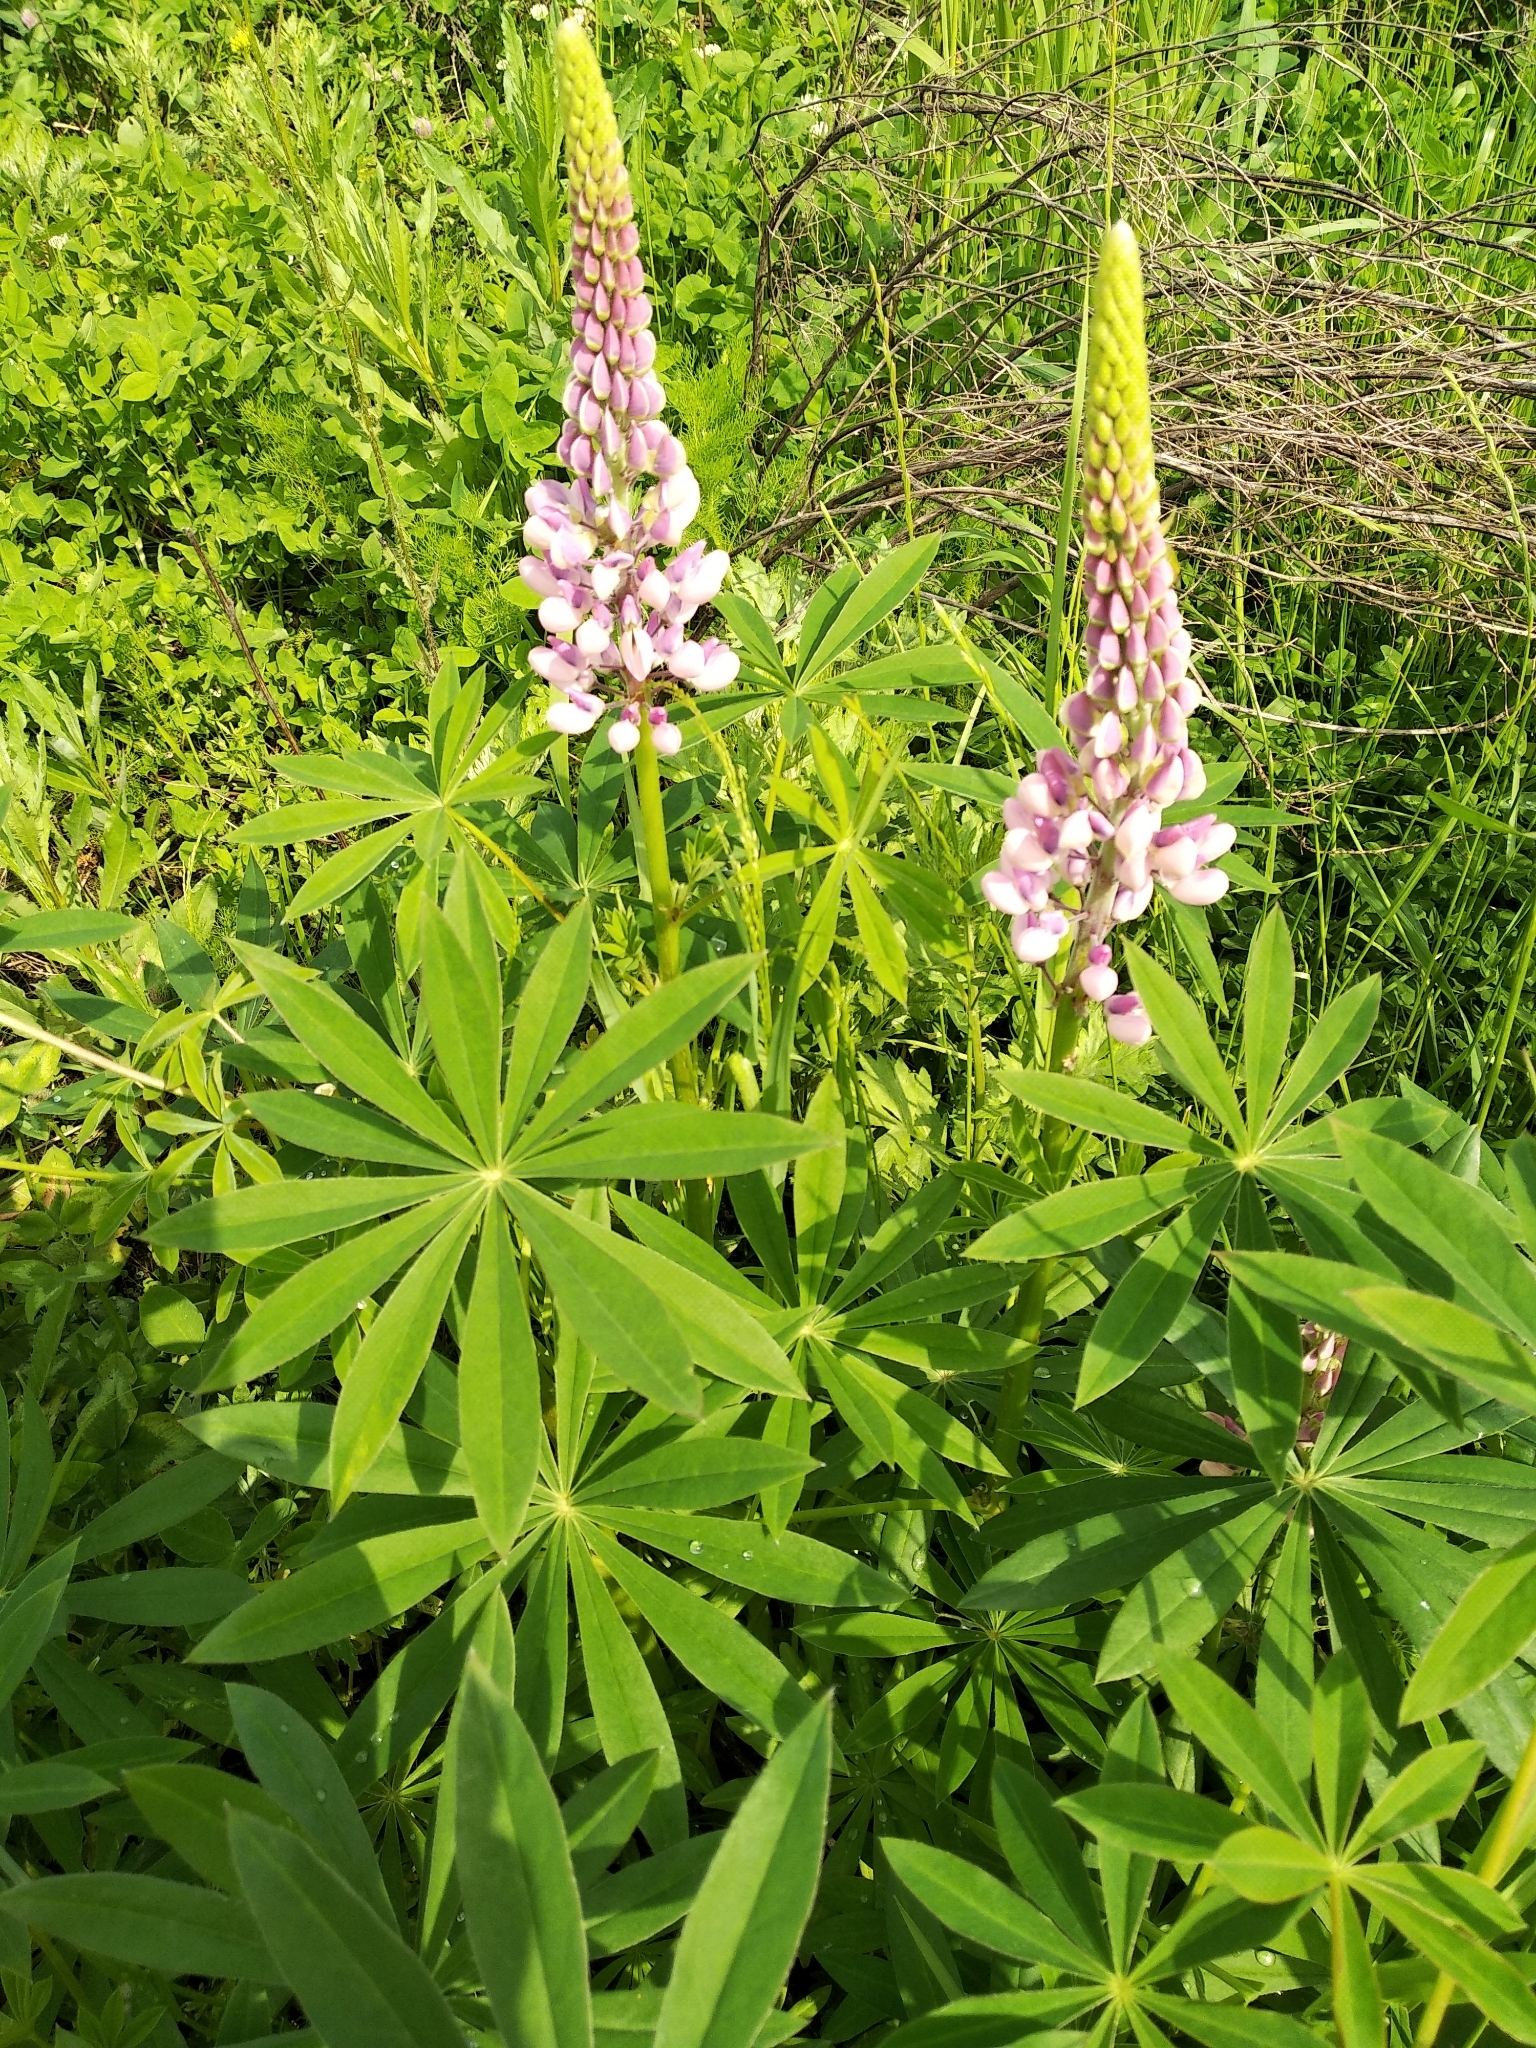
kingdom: Plantae
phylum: Tracheophyta
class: Magnoliopsida
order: Fabales
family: Fabaceae
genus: Lupinus
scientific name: Lupinus polyphyllus
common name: Garden lupin
